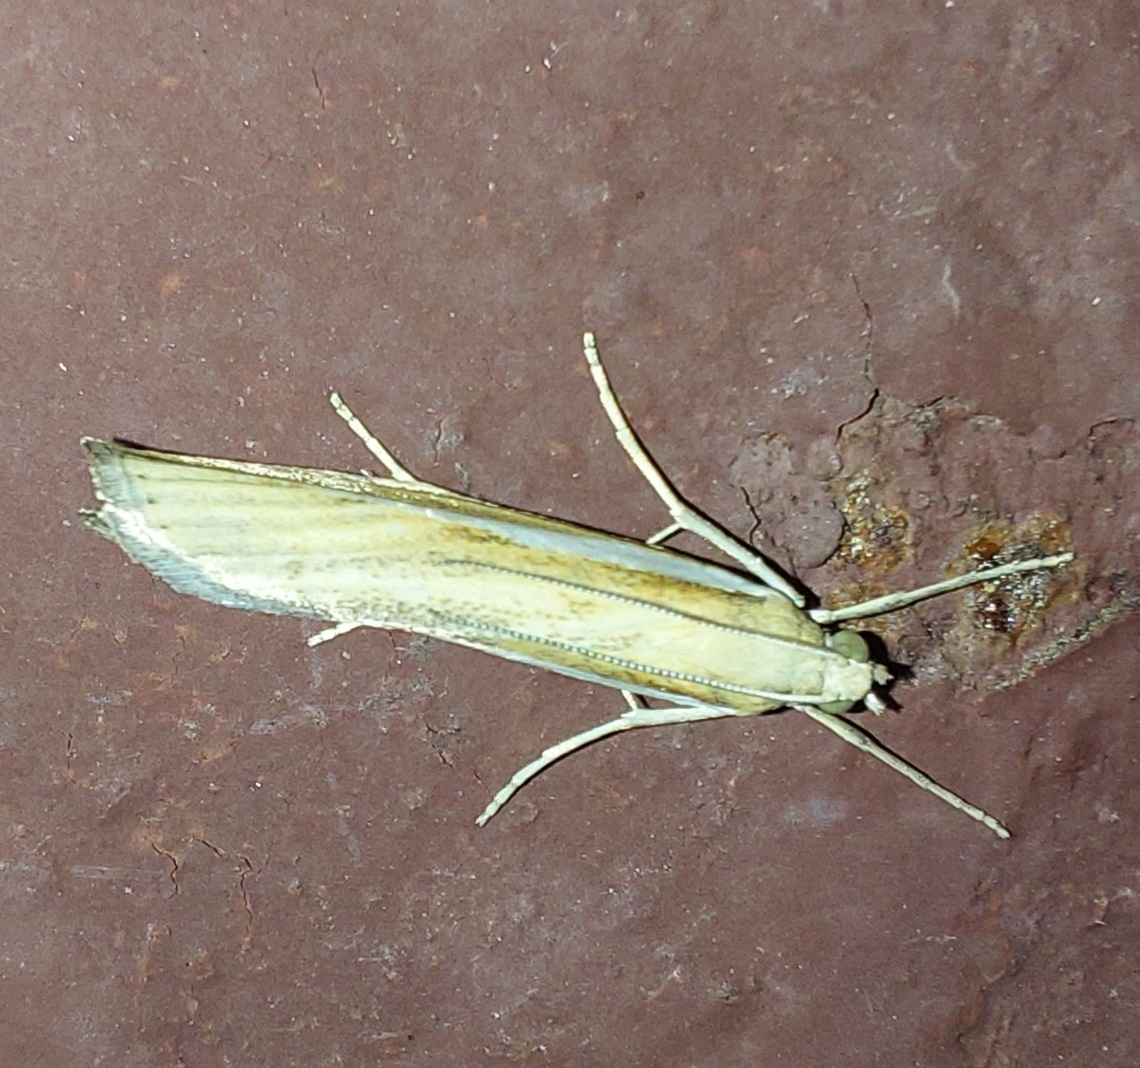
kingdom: Animalia
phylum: Arthropoda
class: Insecta
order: Lepidoptera
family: Crambidae
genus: Agriphila
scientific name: Agriphila tristellus
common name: Common grass-veneer
